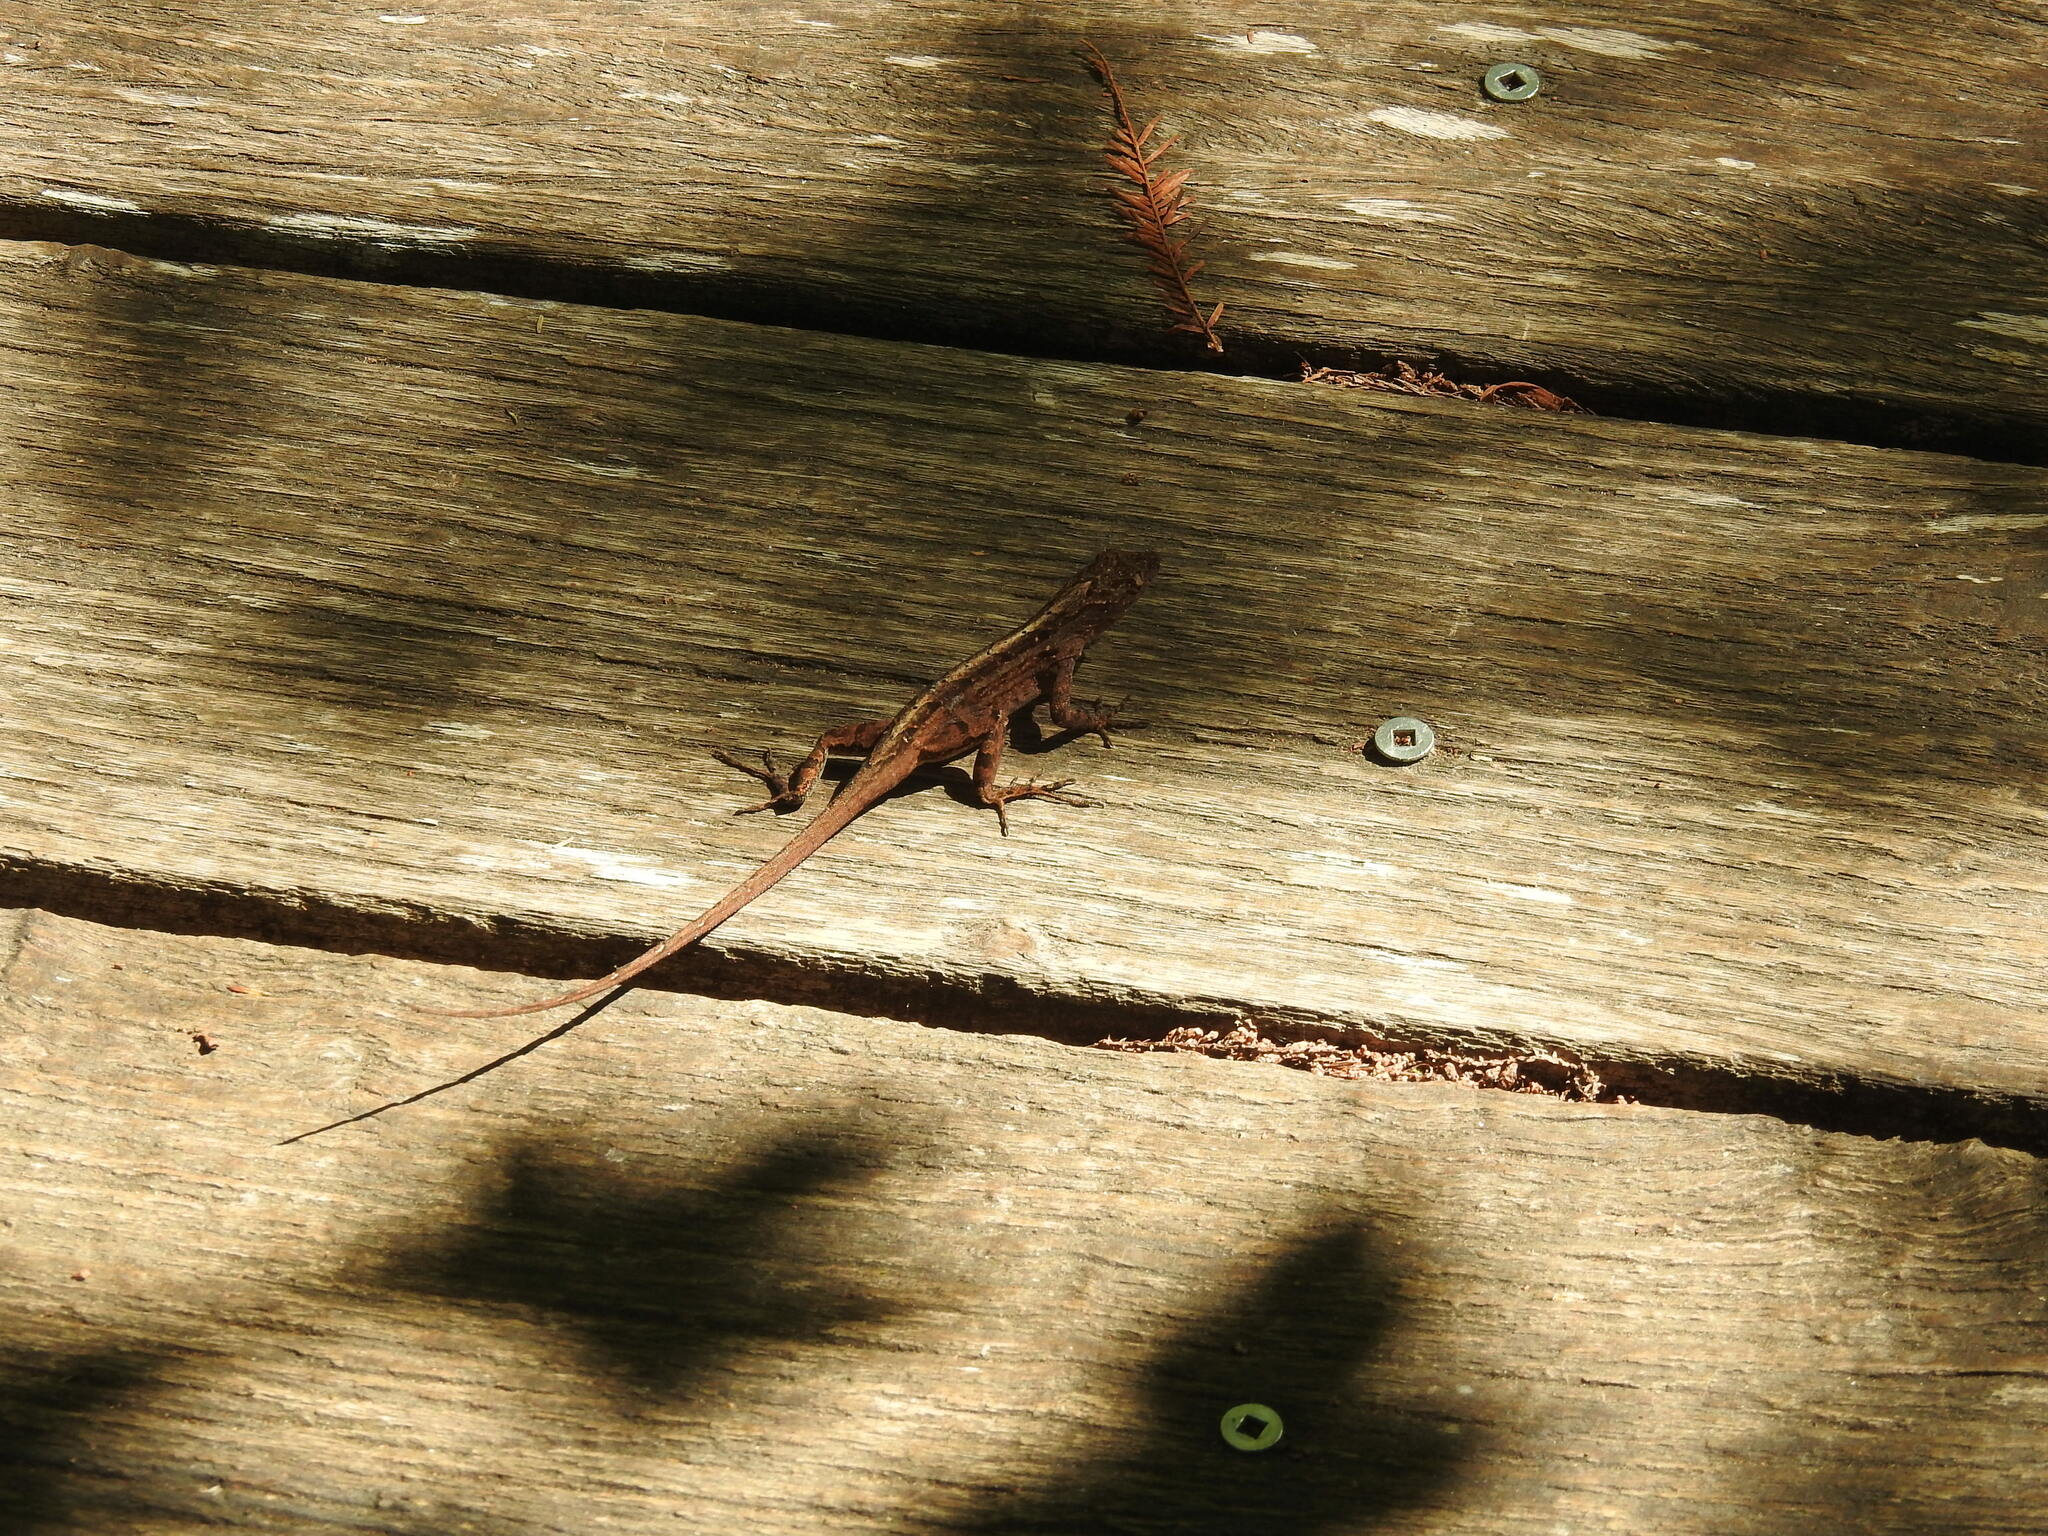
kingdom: Animalia
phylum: Chordata
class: Squamata
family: Dactyloidae
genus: Anolis
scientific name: Anolis sagrei
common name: Brown anole
